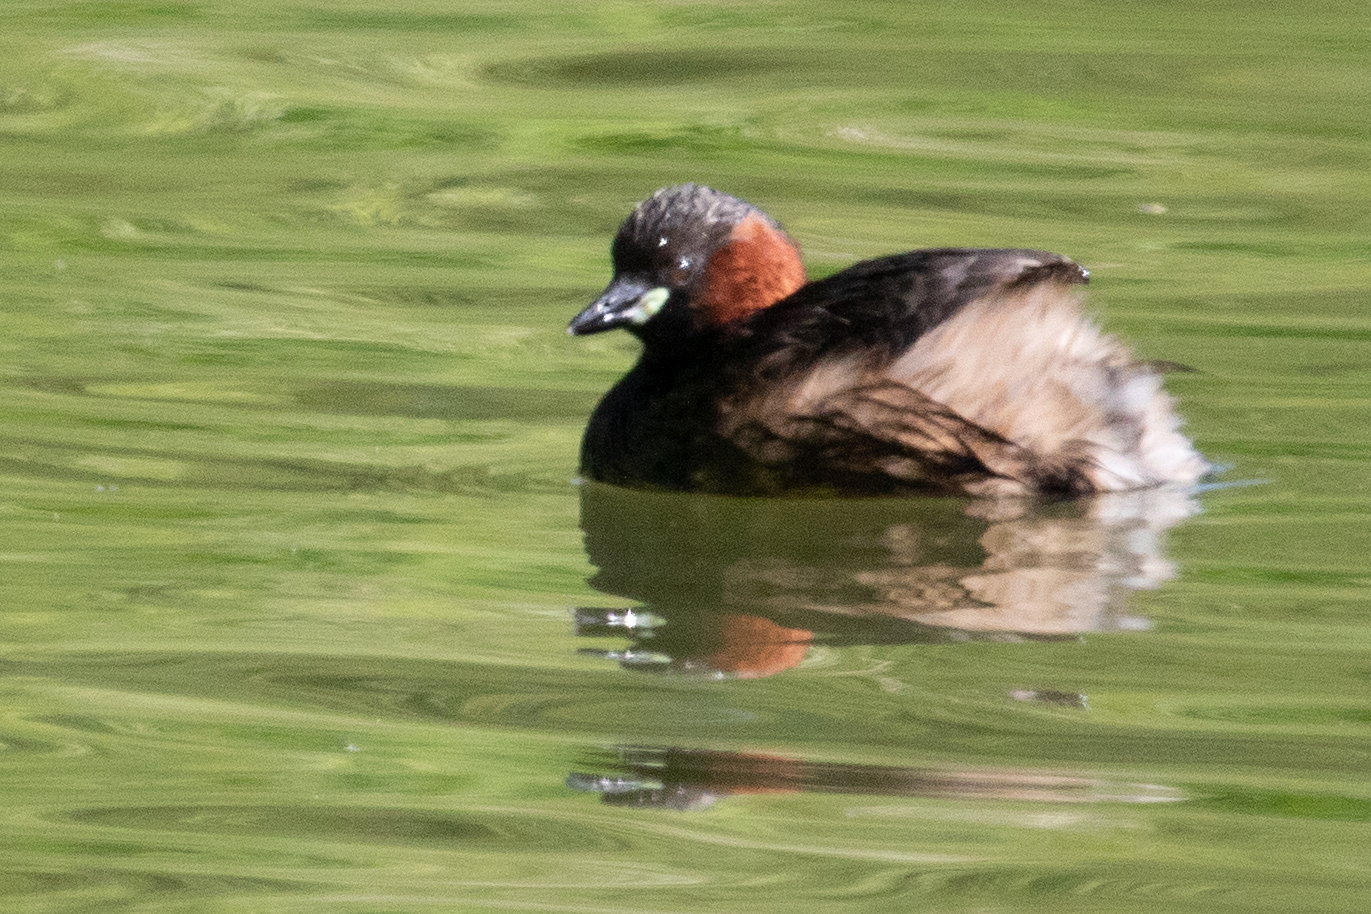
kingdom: Animalia
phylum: Chordata
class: Aves
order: Podicipediformes
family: Podicipedidae
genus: Tachybaptus
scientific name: Tachybaptus ruficollis
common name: Little grebe
